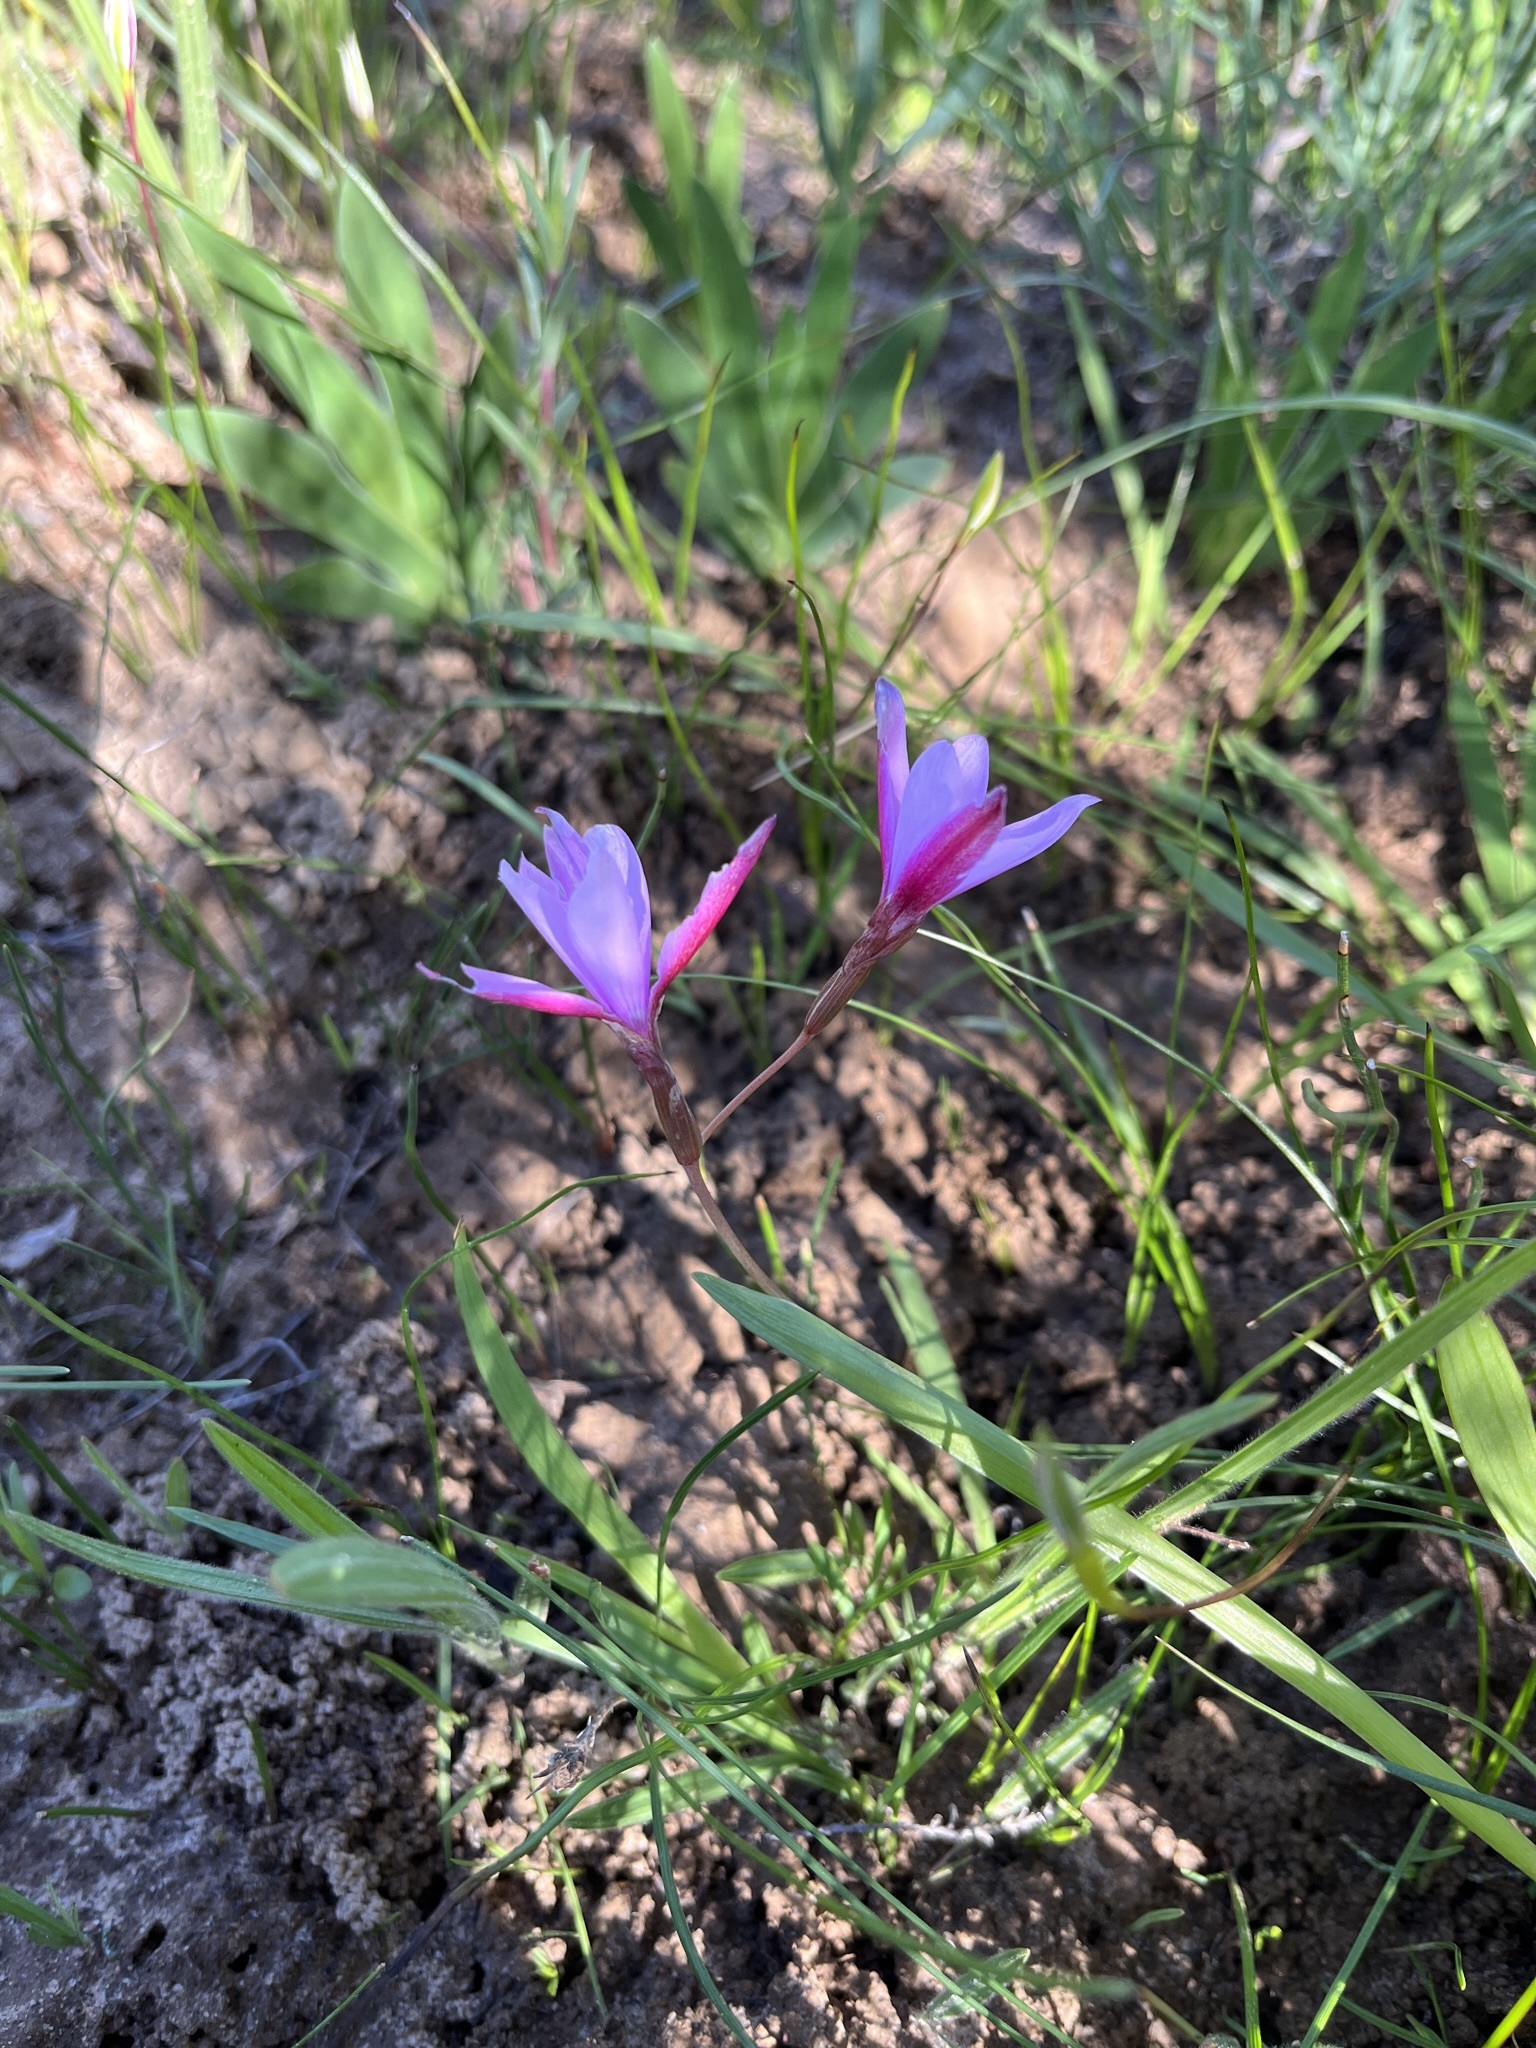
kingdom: Plantae
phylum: Tracheophyta
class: Liliopsida
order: Asparagales
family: Iridaceae
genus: Hesperantha
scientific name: Hesperantha pauciflora
